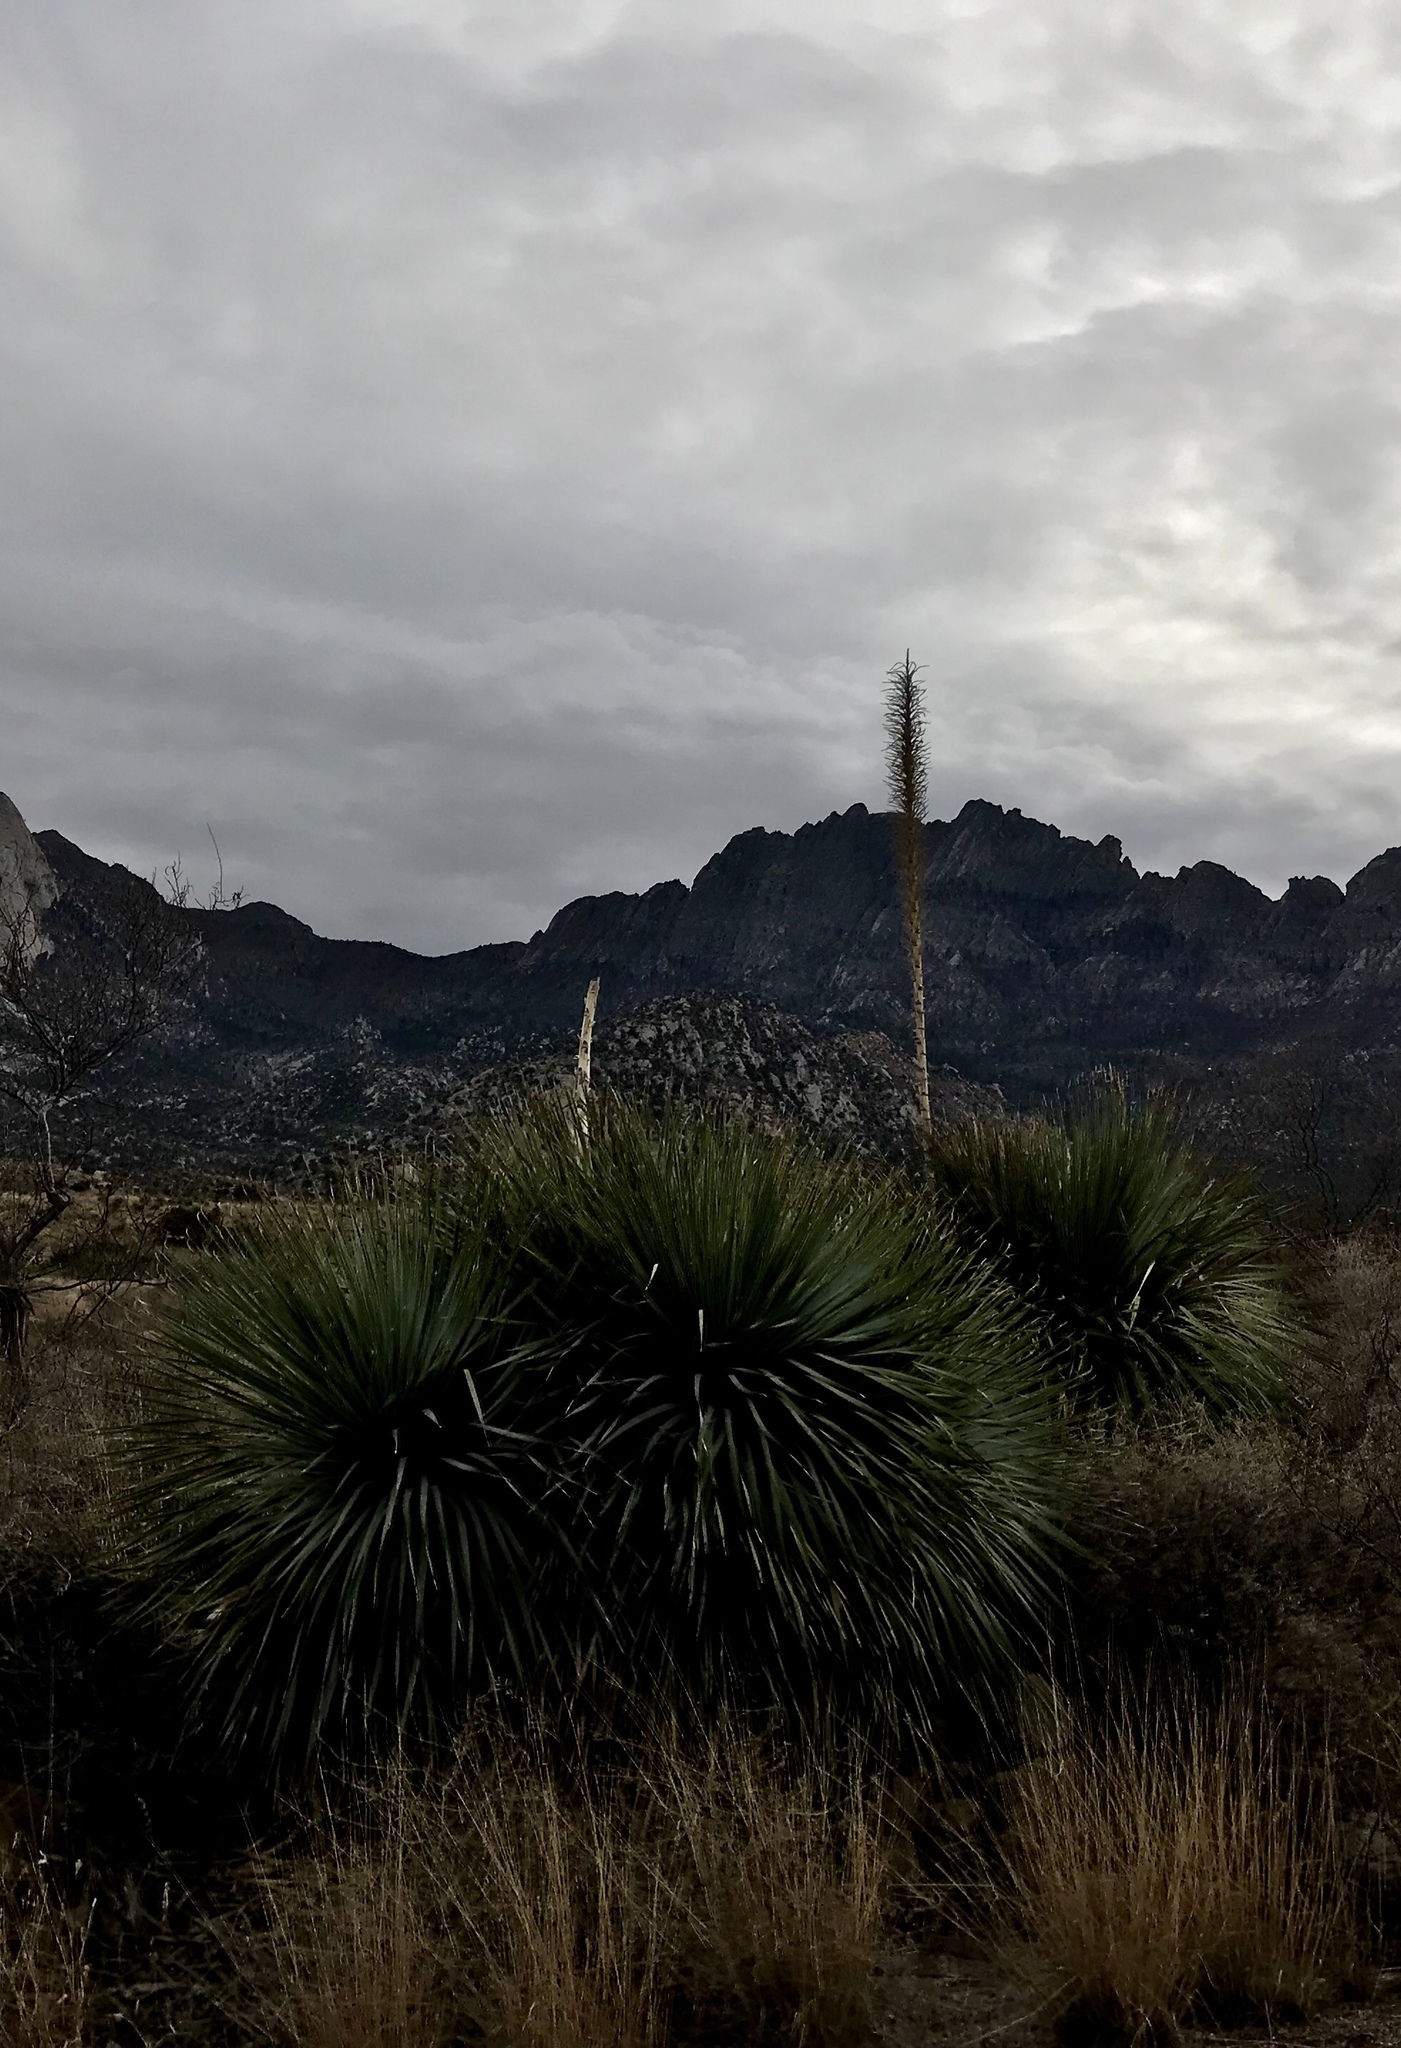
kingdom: Plantae
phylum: Tracheophyta
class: Liliopsida
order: Asparagales
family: Asparagaceae
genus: Dasylirion
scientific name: Dasylirion wheeleri
